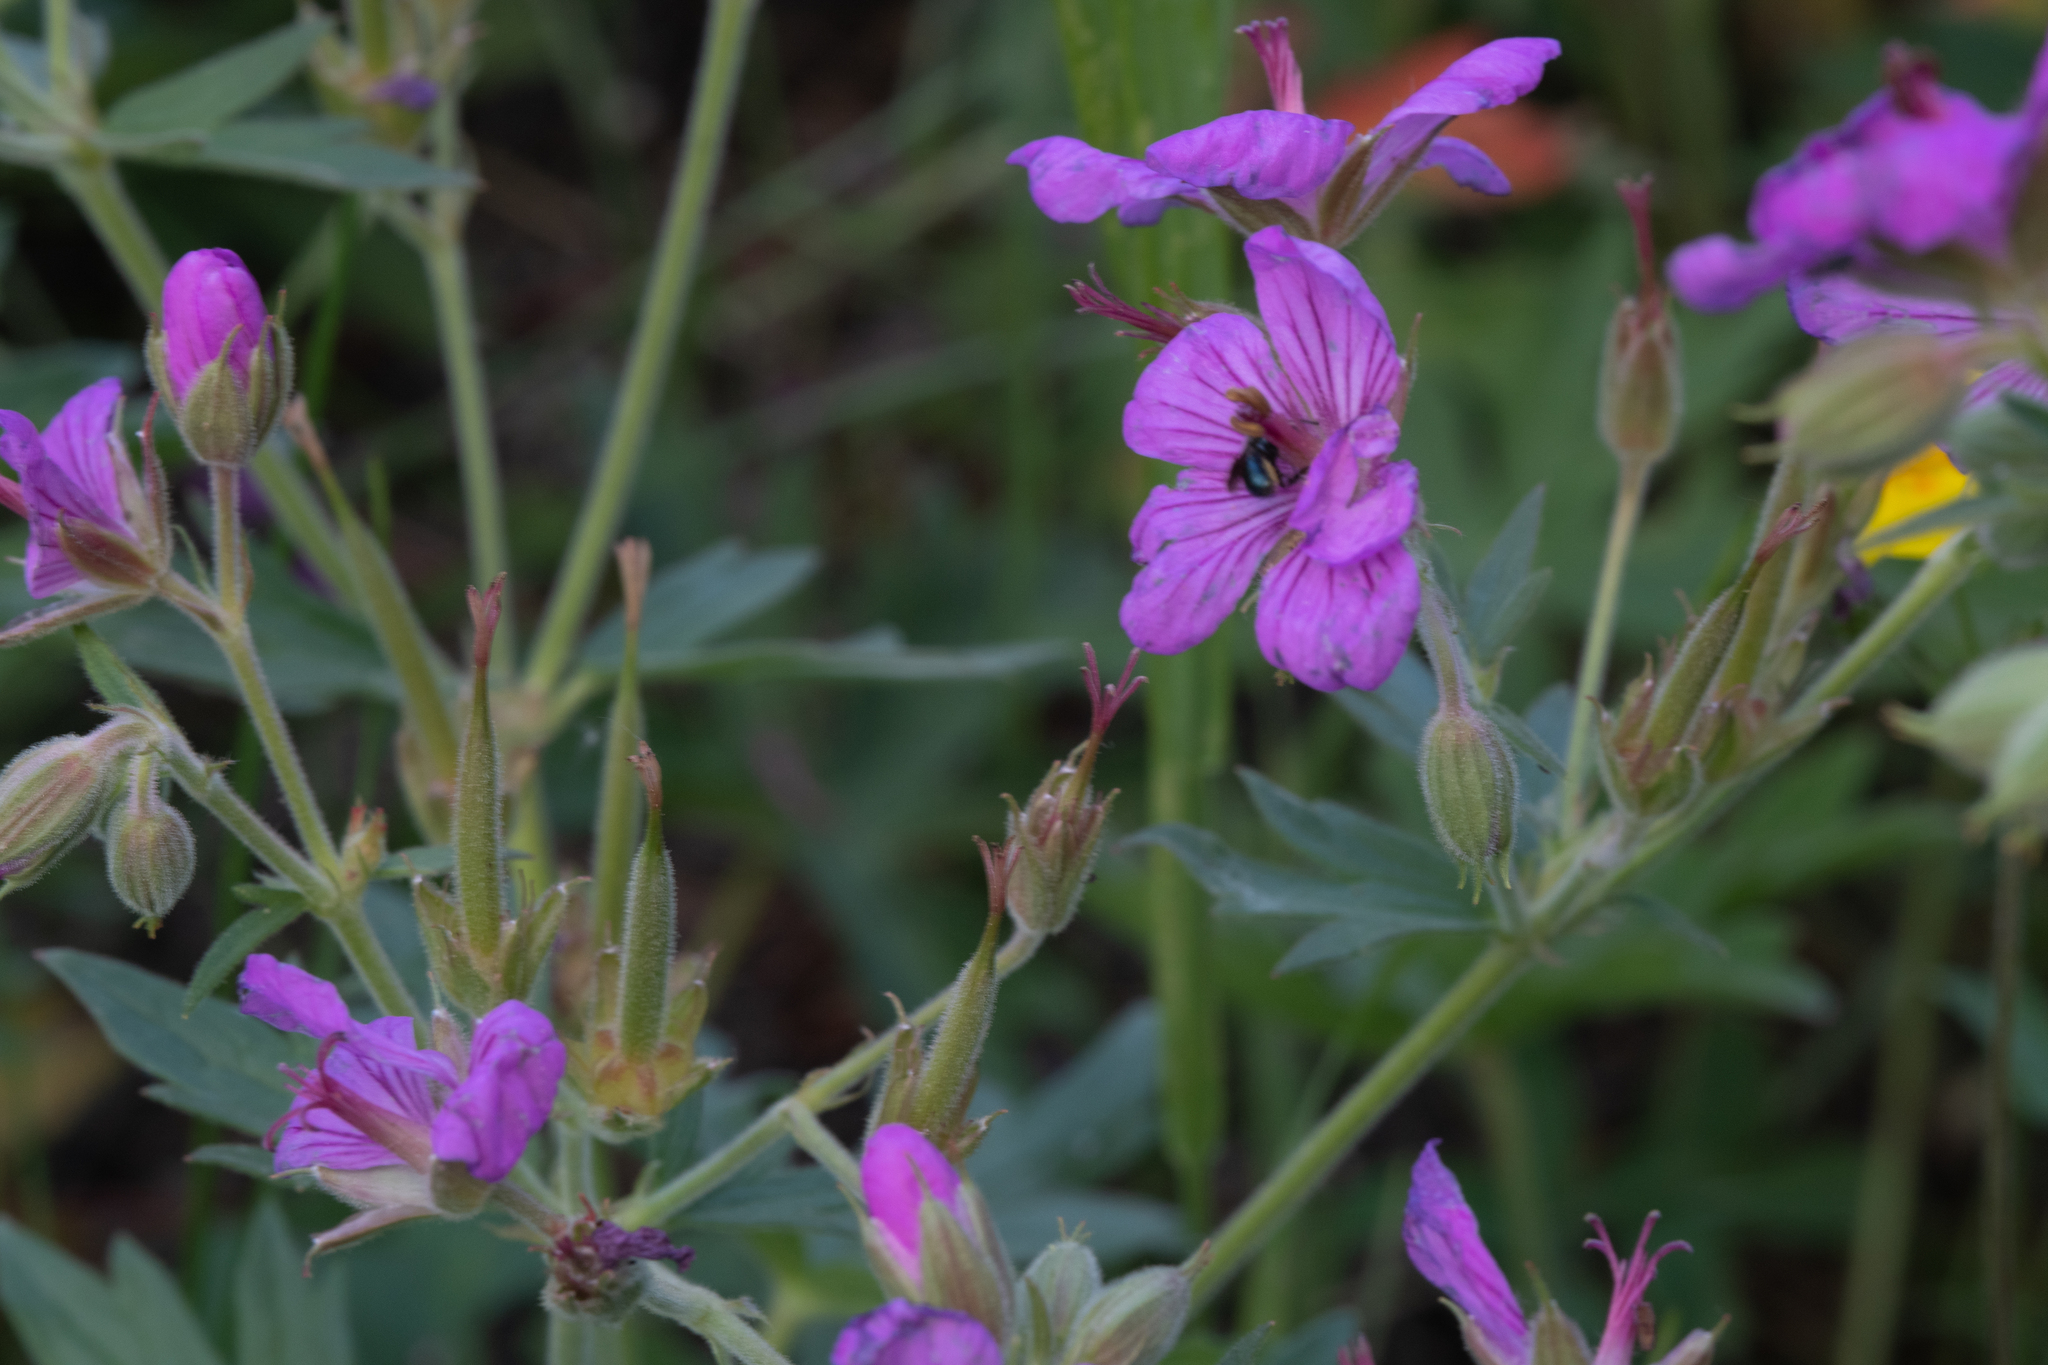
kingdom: Plantae
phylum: Tracheophyta
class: Magnoliopsida
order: Geraniales
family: Geraniaceae
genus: Geranium
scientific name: Geranium viscosissimum
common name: Purple geranium
